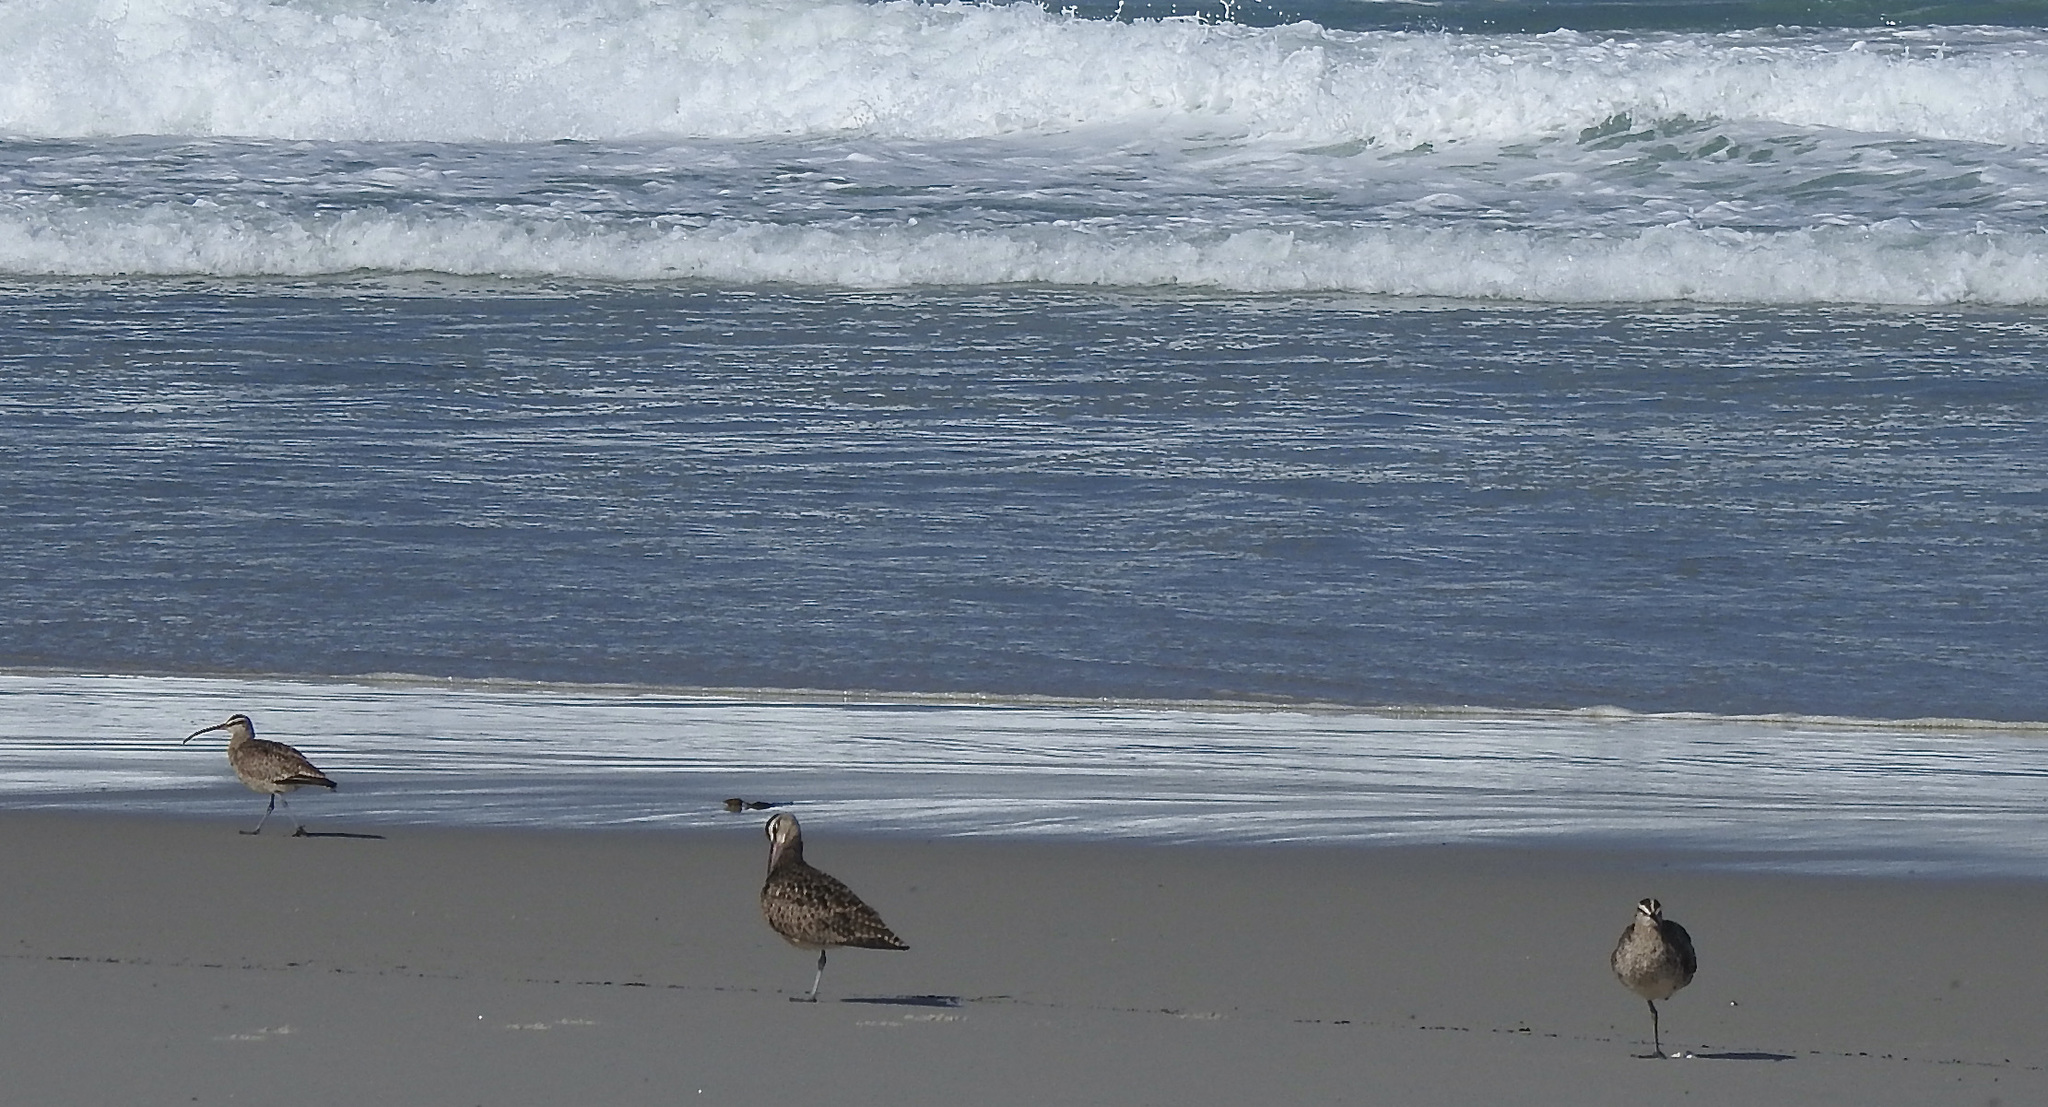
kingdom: Animalia
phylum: Chordata
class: Aves
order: Charadriiformes
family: Scolopacidae
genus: Numenius
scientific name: Numenius phaeopus
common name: Whimbrel
